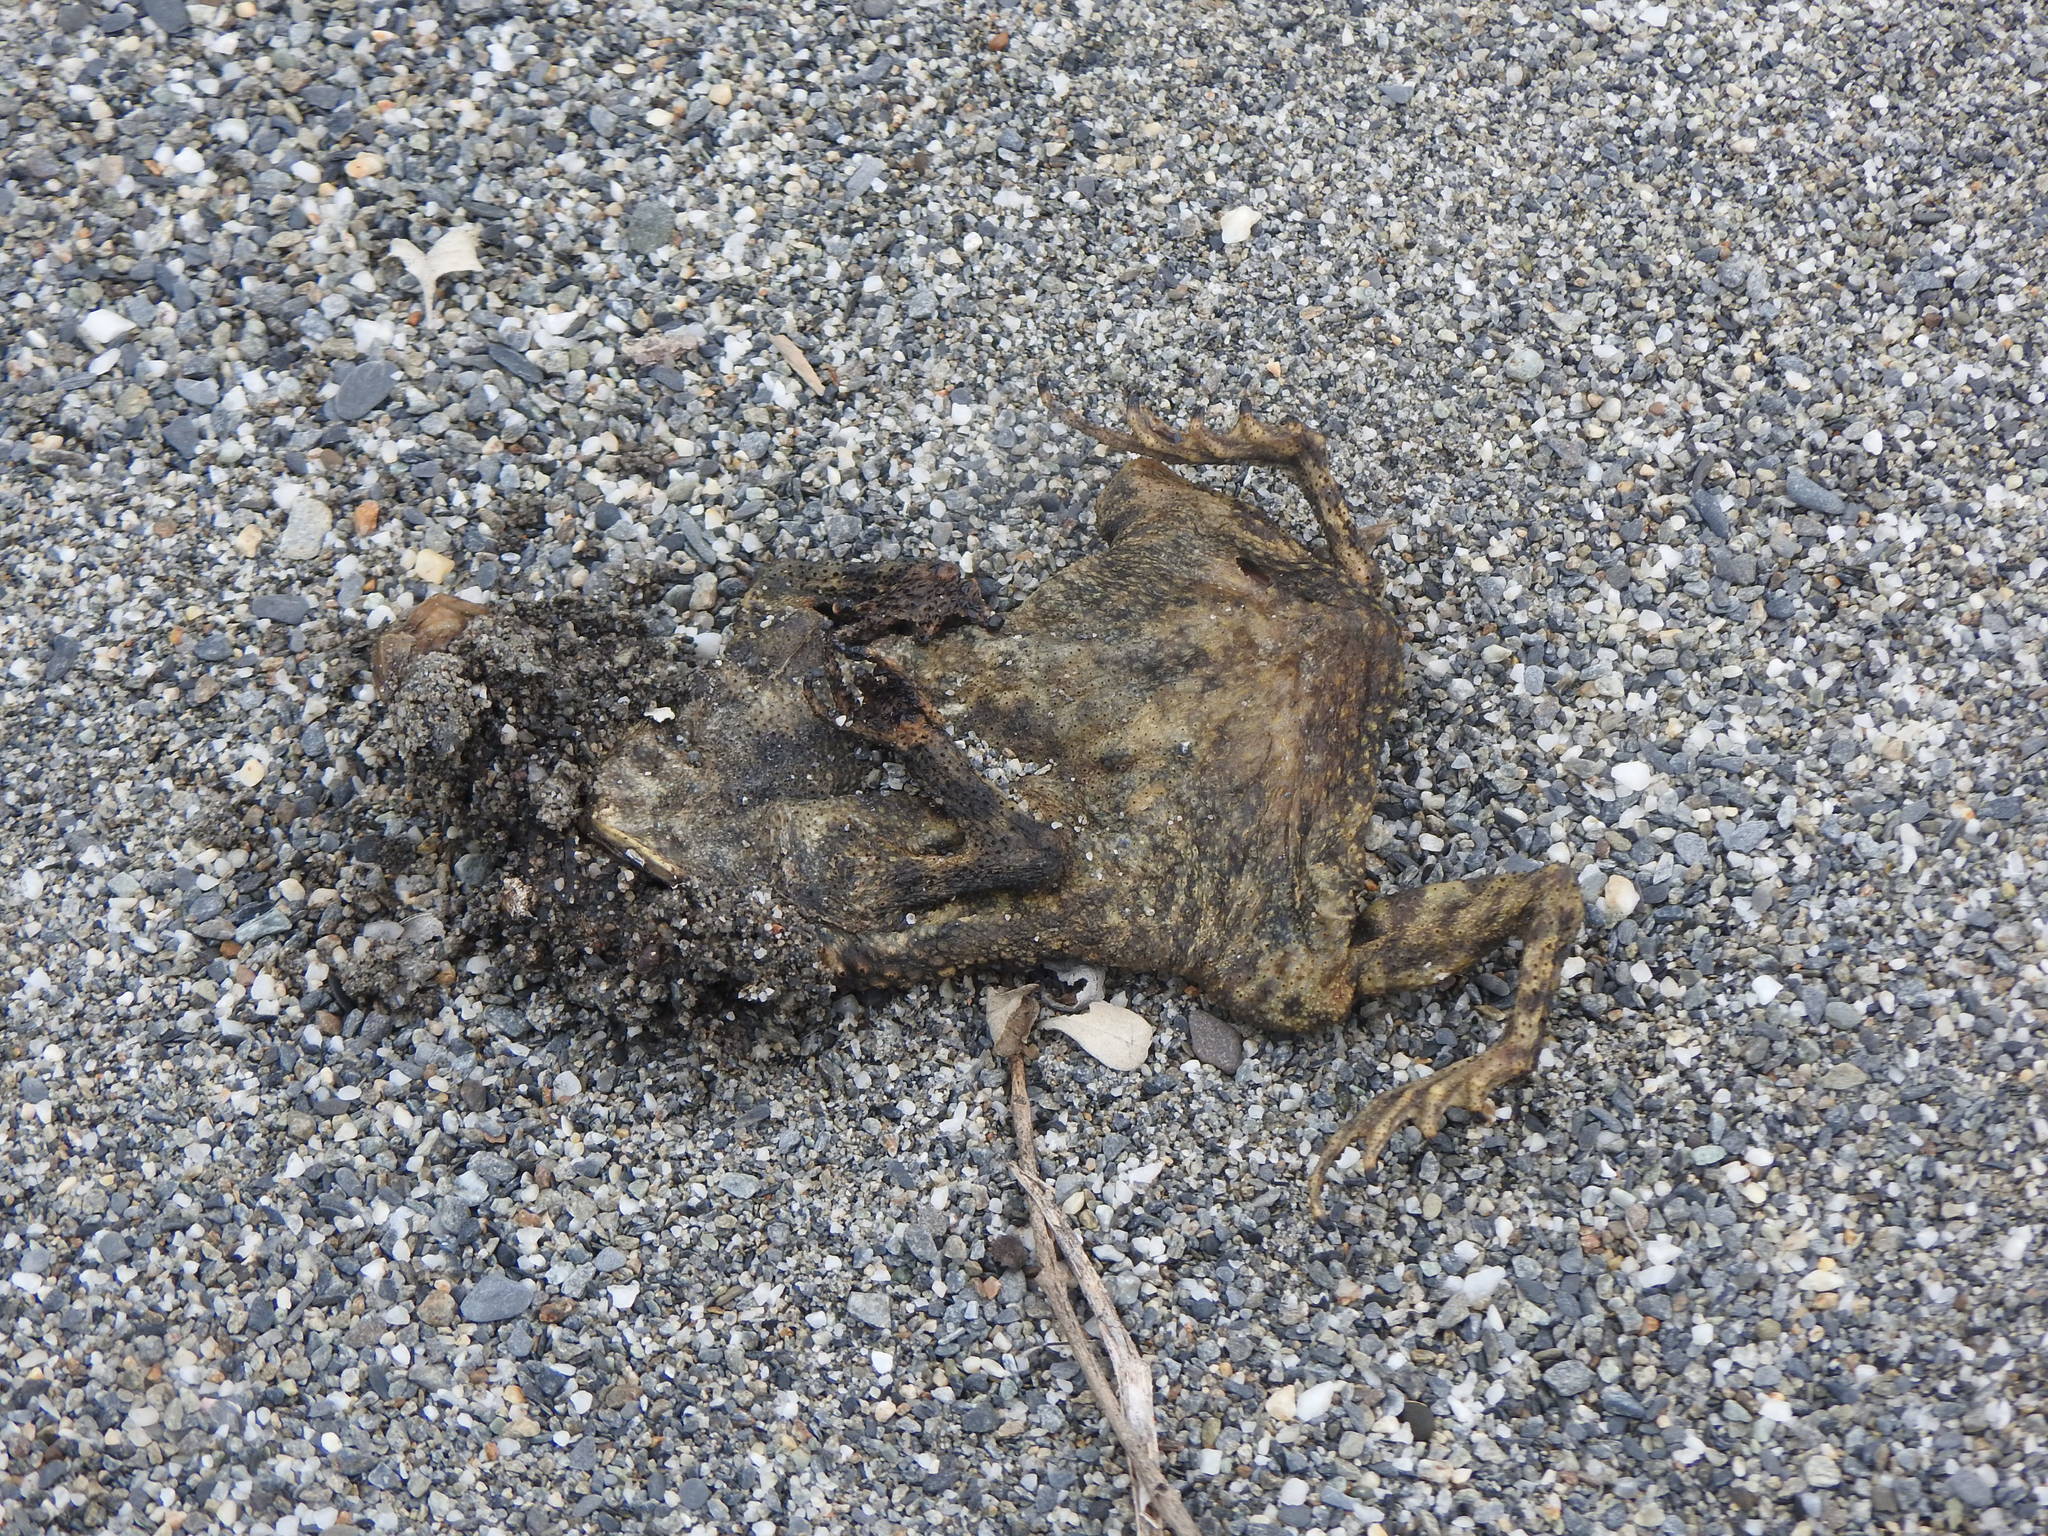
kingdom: Animalia
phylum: Chordata
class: Amphibia
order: Anura
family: Bufonidae
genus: Bufo
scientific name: Bufo bankorensis
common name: Bankor toad
